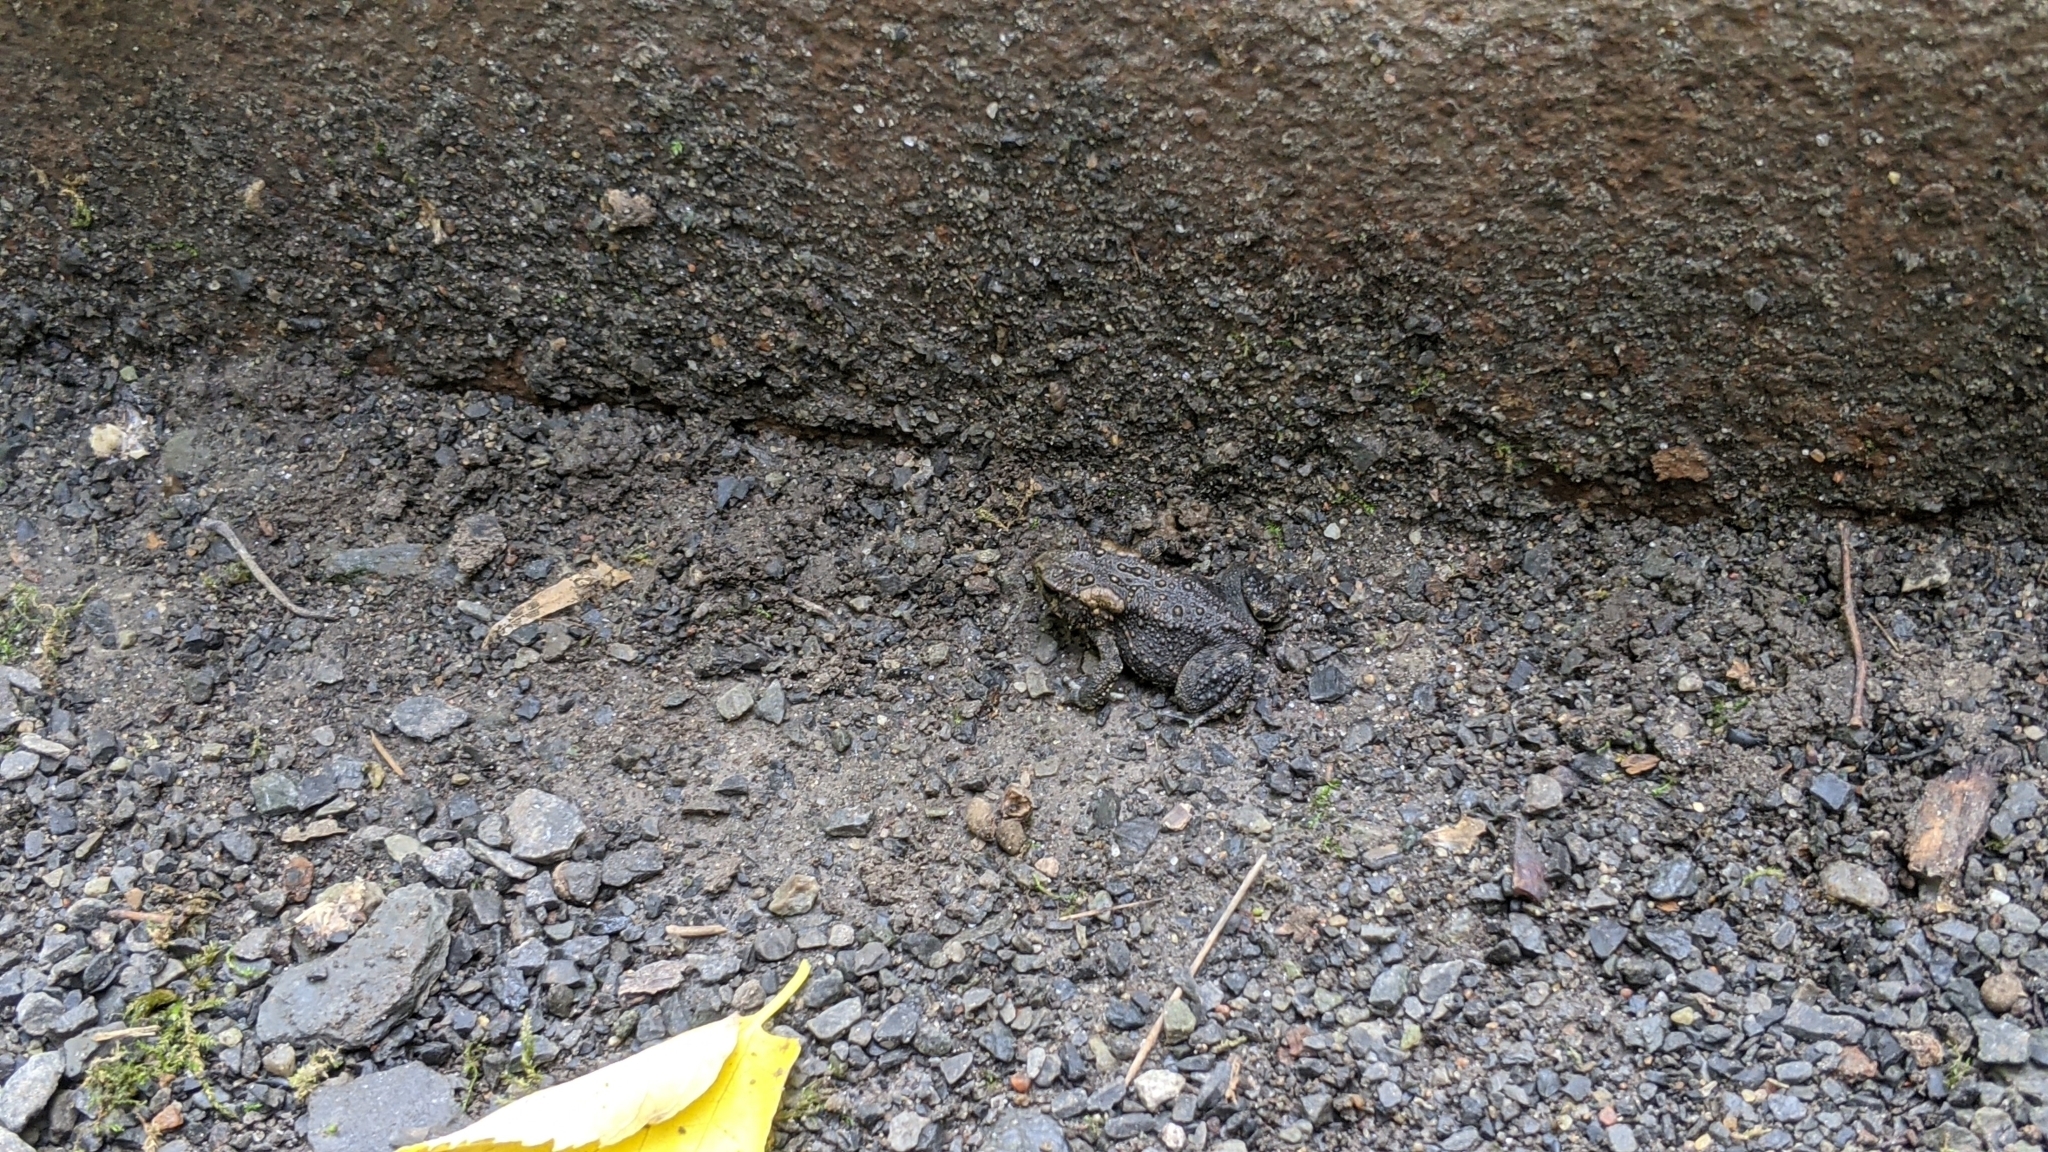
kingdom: Animalia
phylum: Chordata
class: Amphibia
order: Anura
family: Bufonidae
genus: Anaxyrus
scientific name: Anaxyrus americanus
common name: American toad
